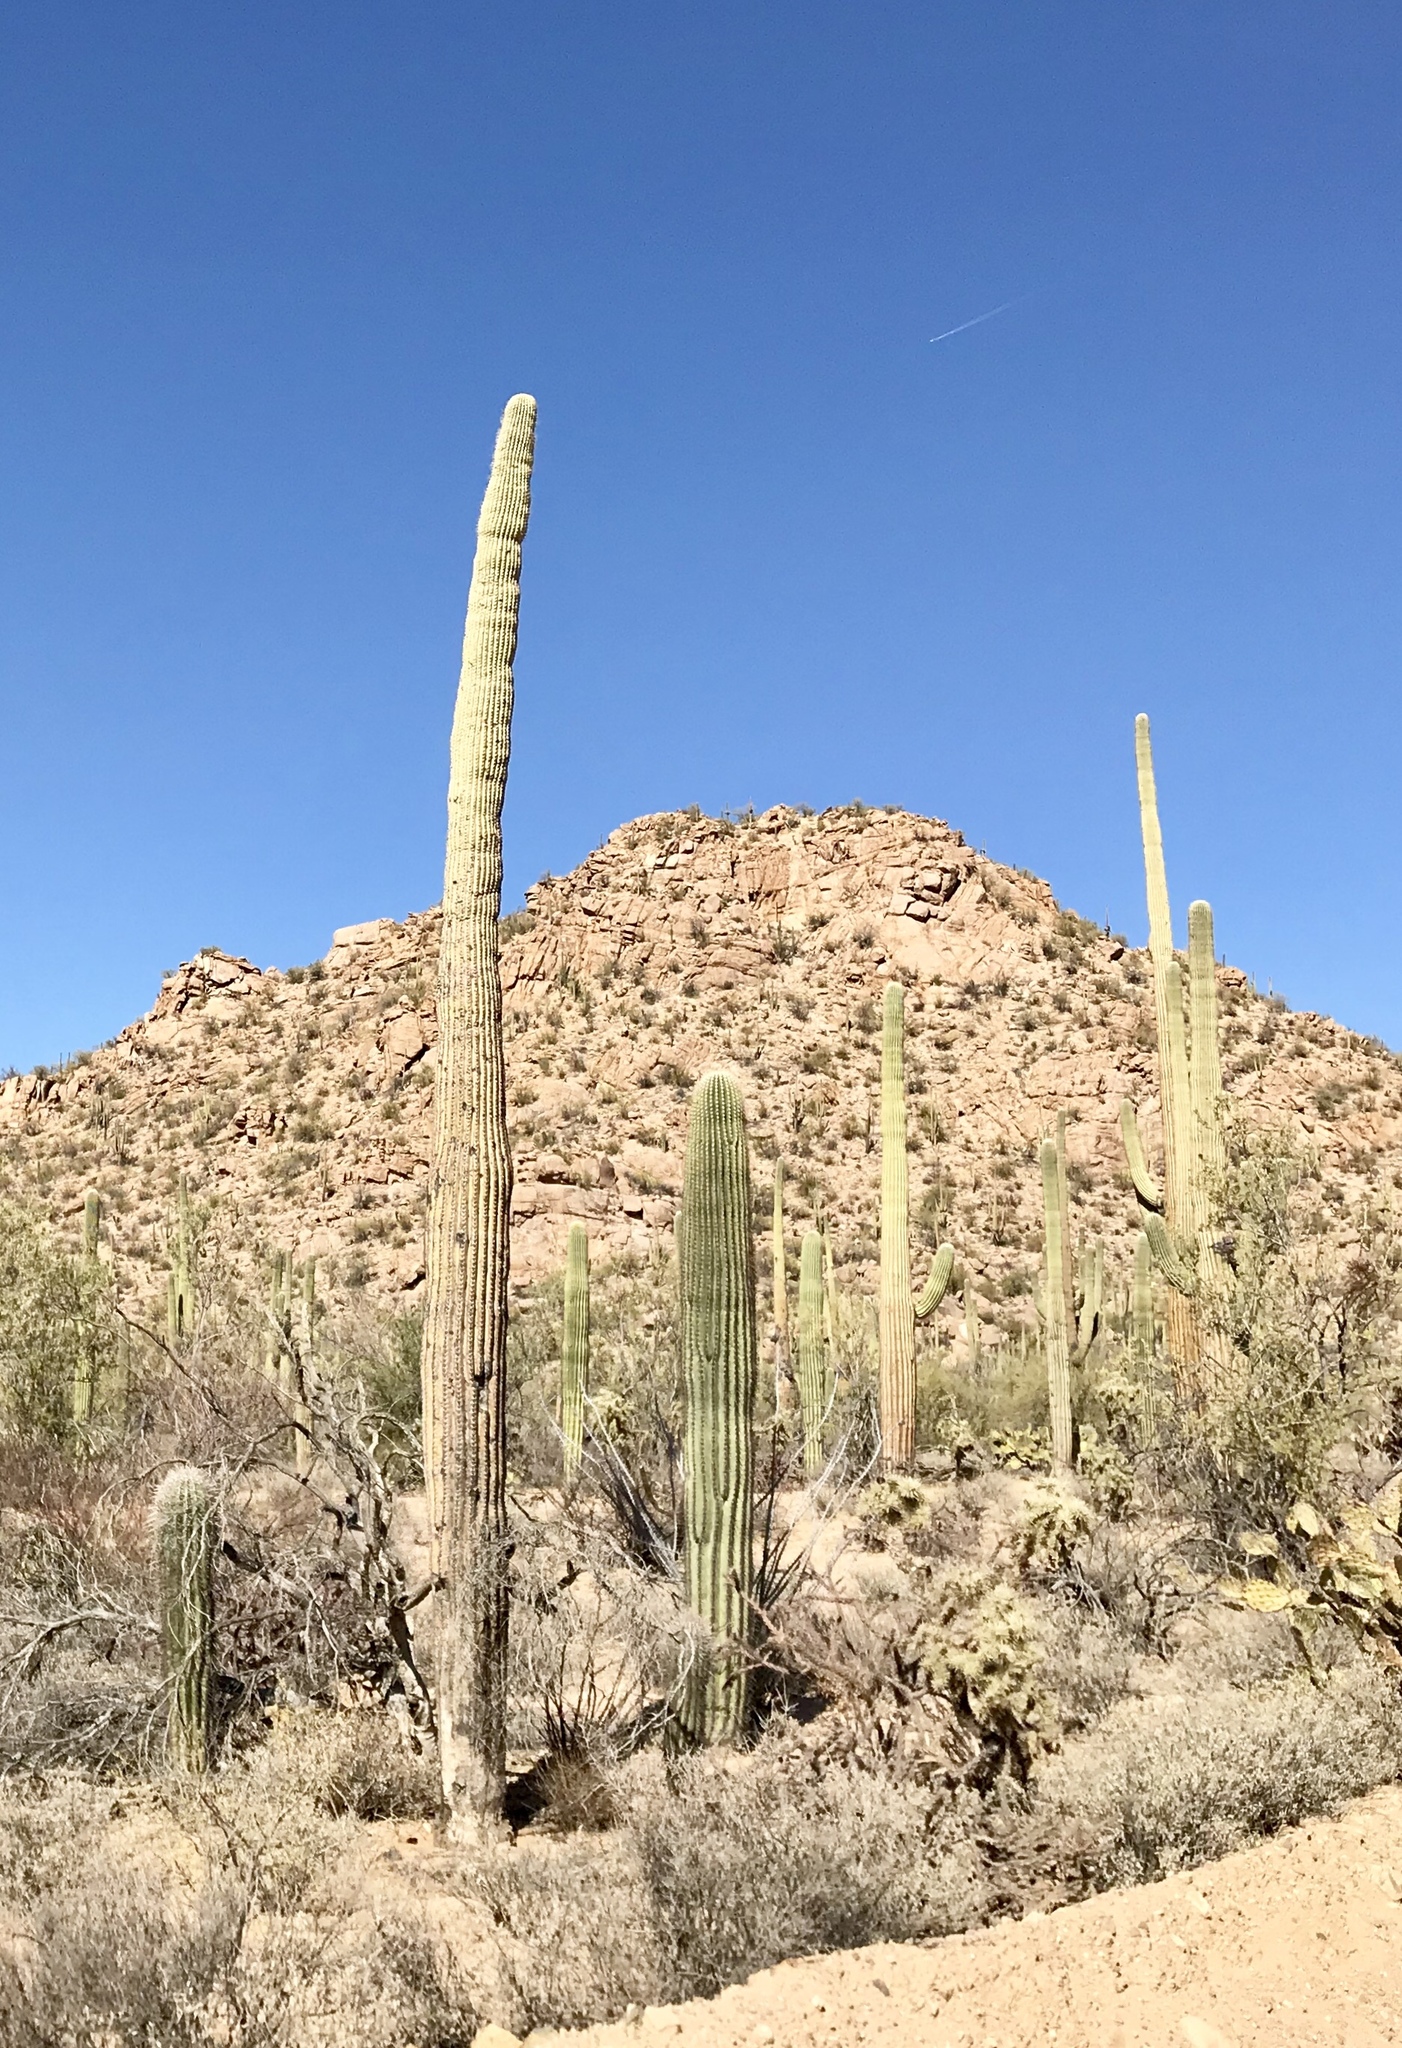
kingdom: Plantae
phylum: Tracheophyta
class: Magnoliopsida
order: Caryophyllales
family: Cactaceae
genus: Carnegiea
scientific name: Carnegiea gigantea
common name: Saguaro
